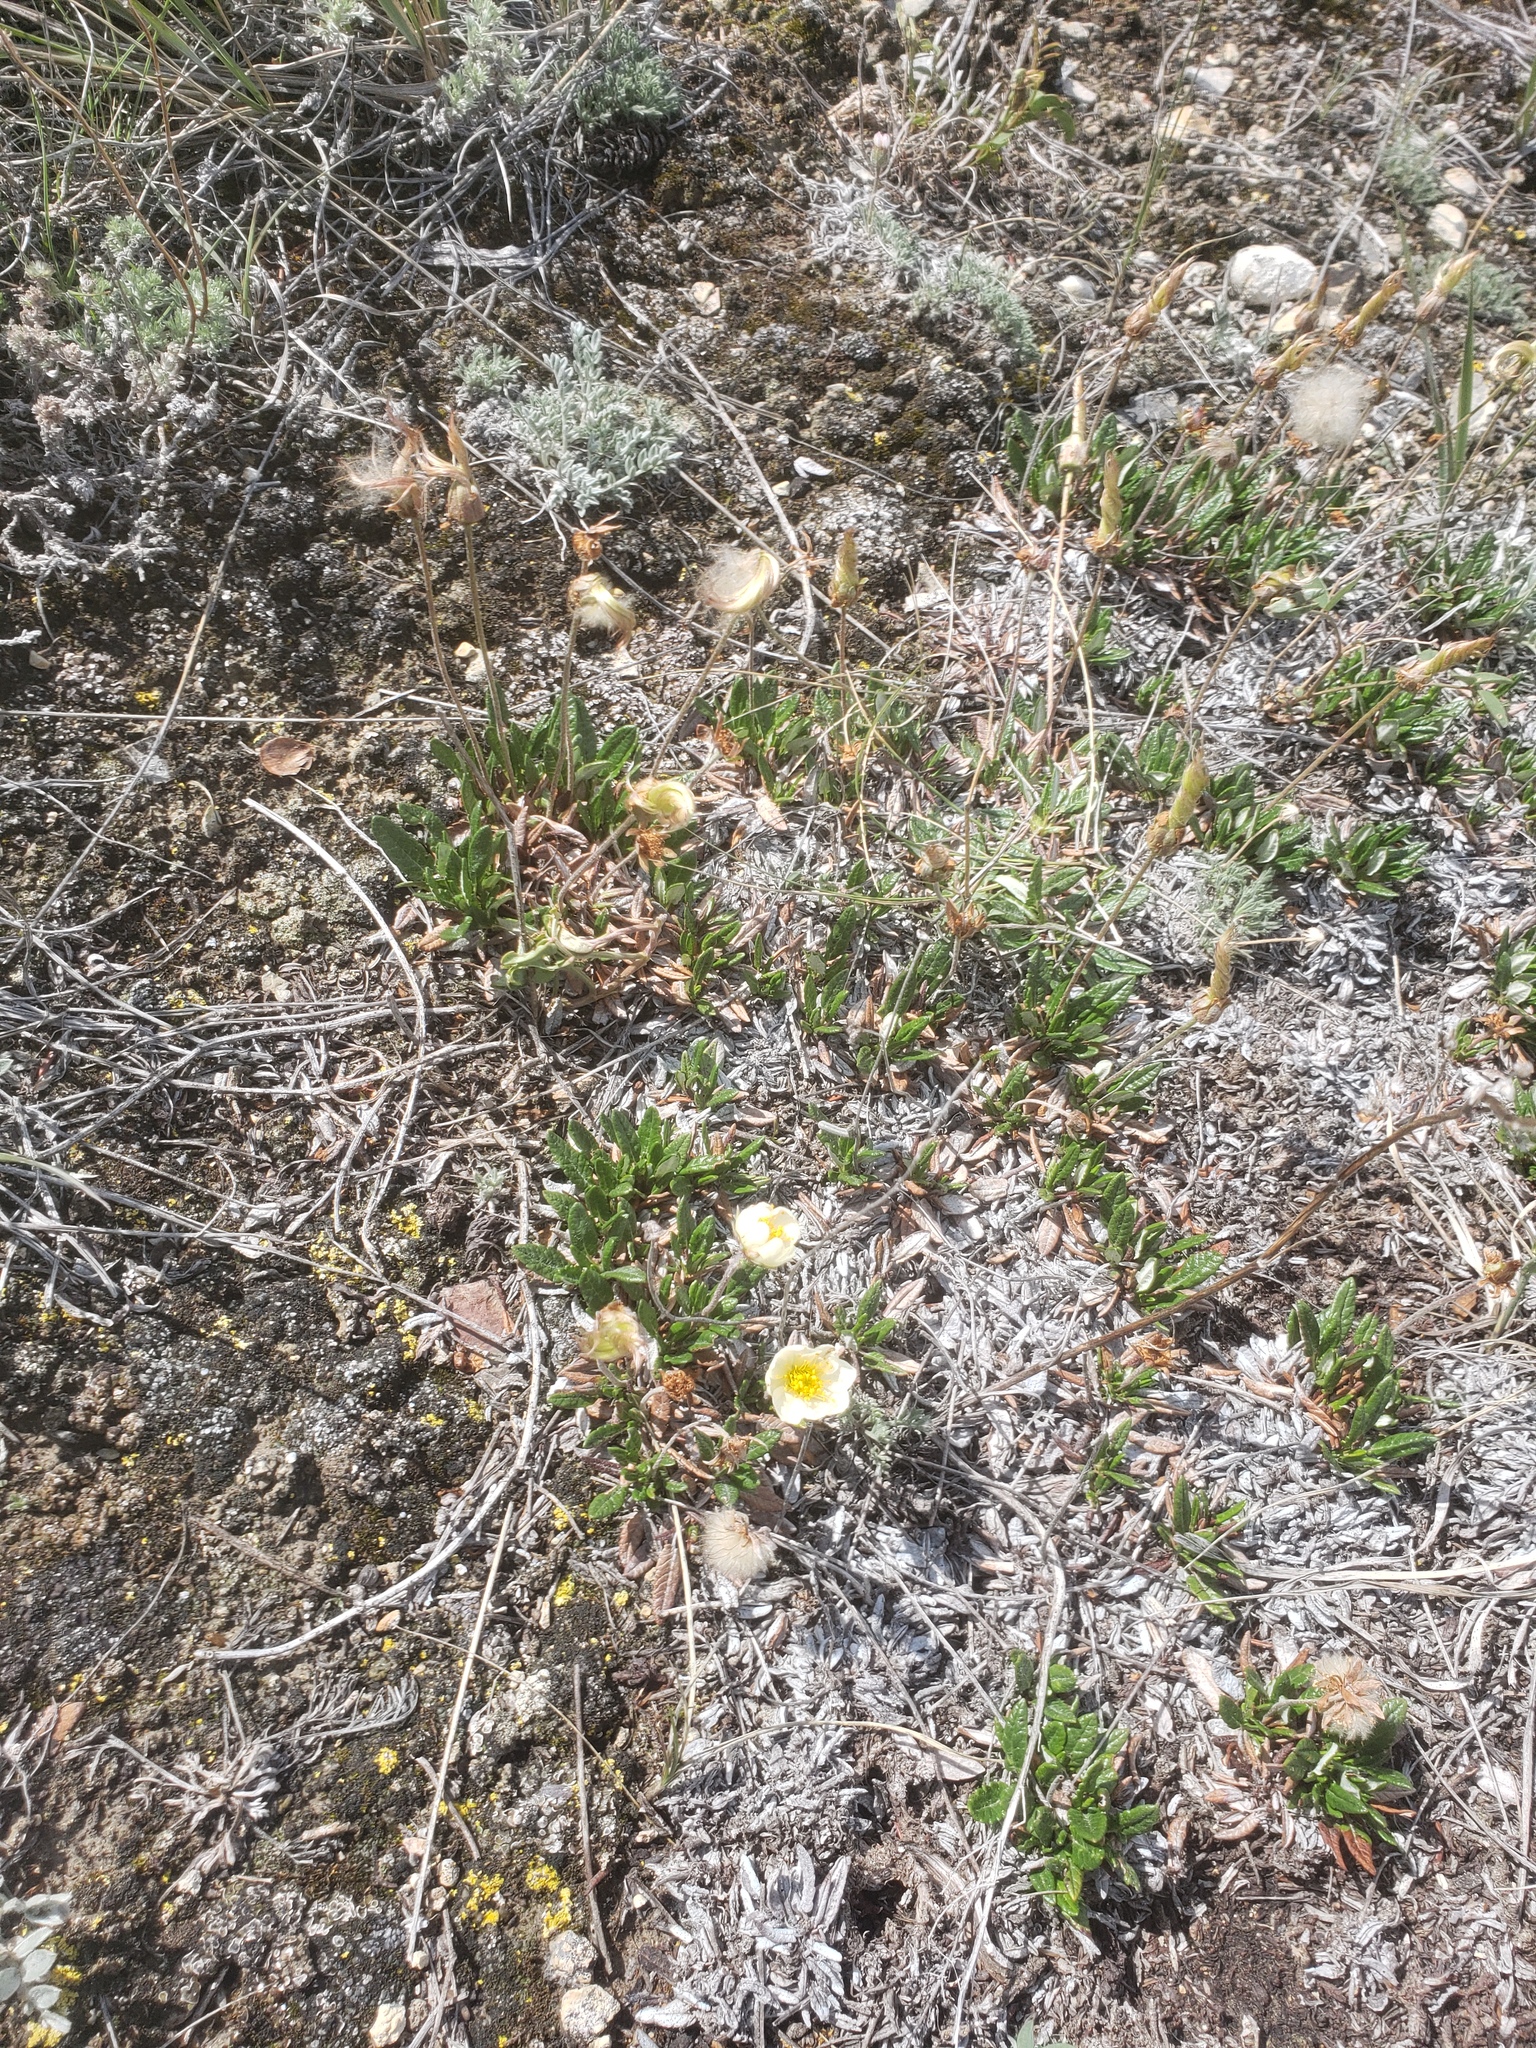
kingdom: Plantae
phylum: Tracheophyta
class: Magnoliopsida
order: Rosales
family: Rosaceae
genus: Dryas
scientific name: Dryas integrifolia
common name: Entire-leaved mountain avens
